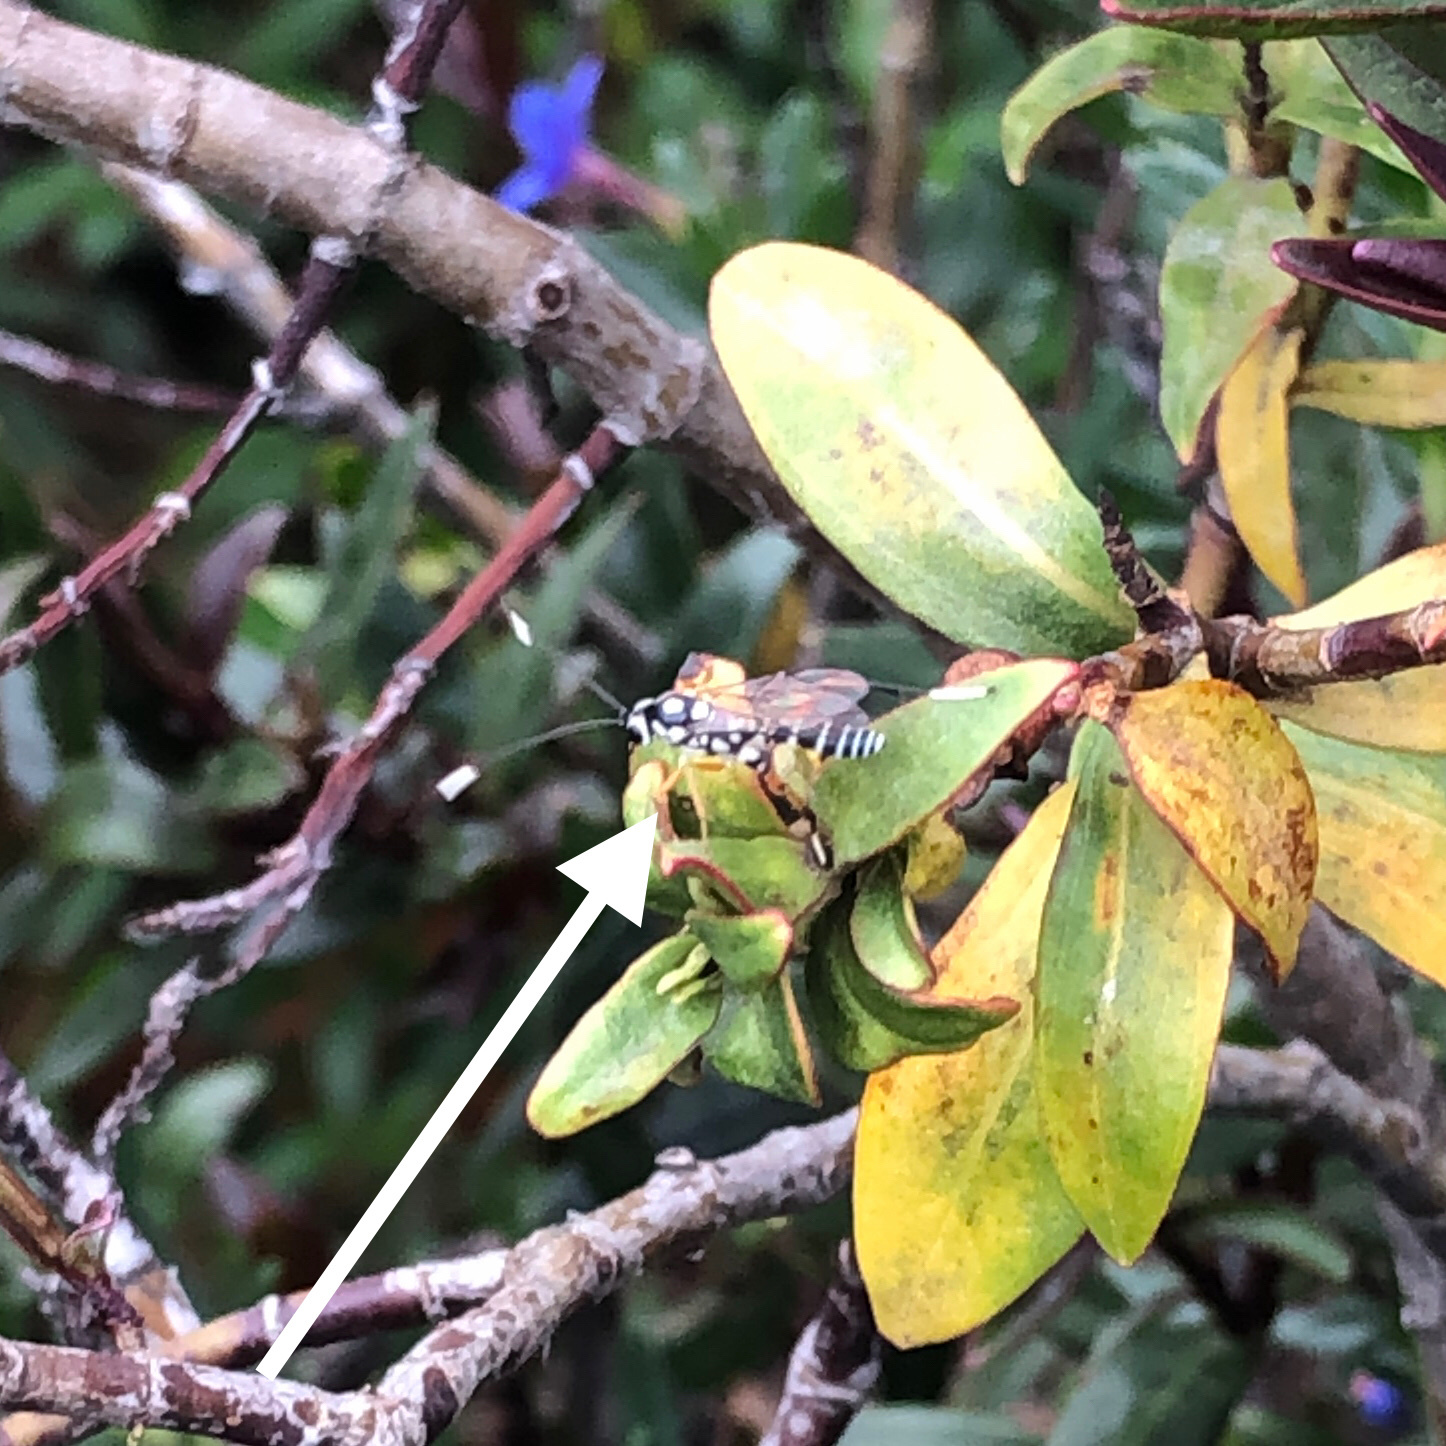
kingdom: Animalia
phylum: Arthropoda
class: Insecta
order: Hymenoptera
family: Ichneumonidae
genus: Glabridorsum
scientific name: Glabridorsum stokesii
